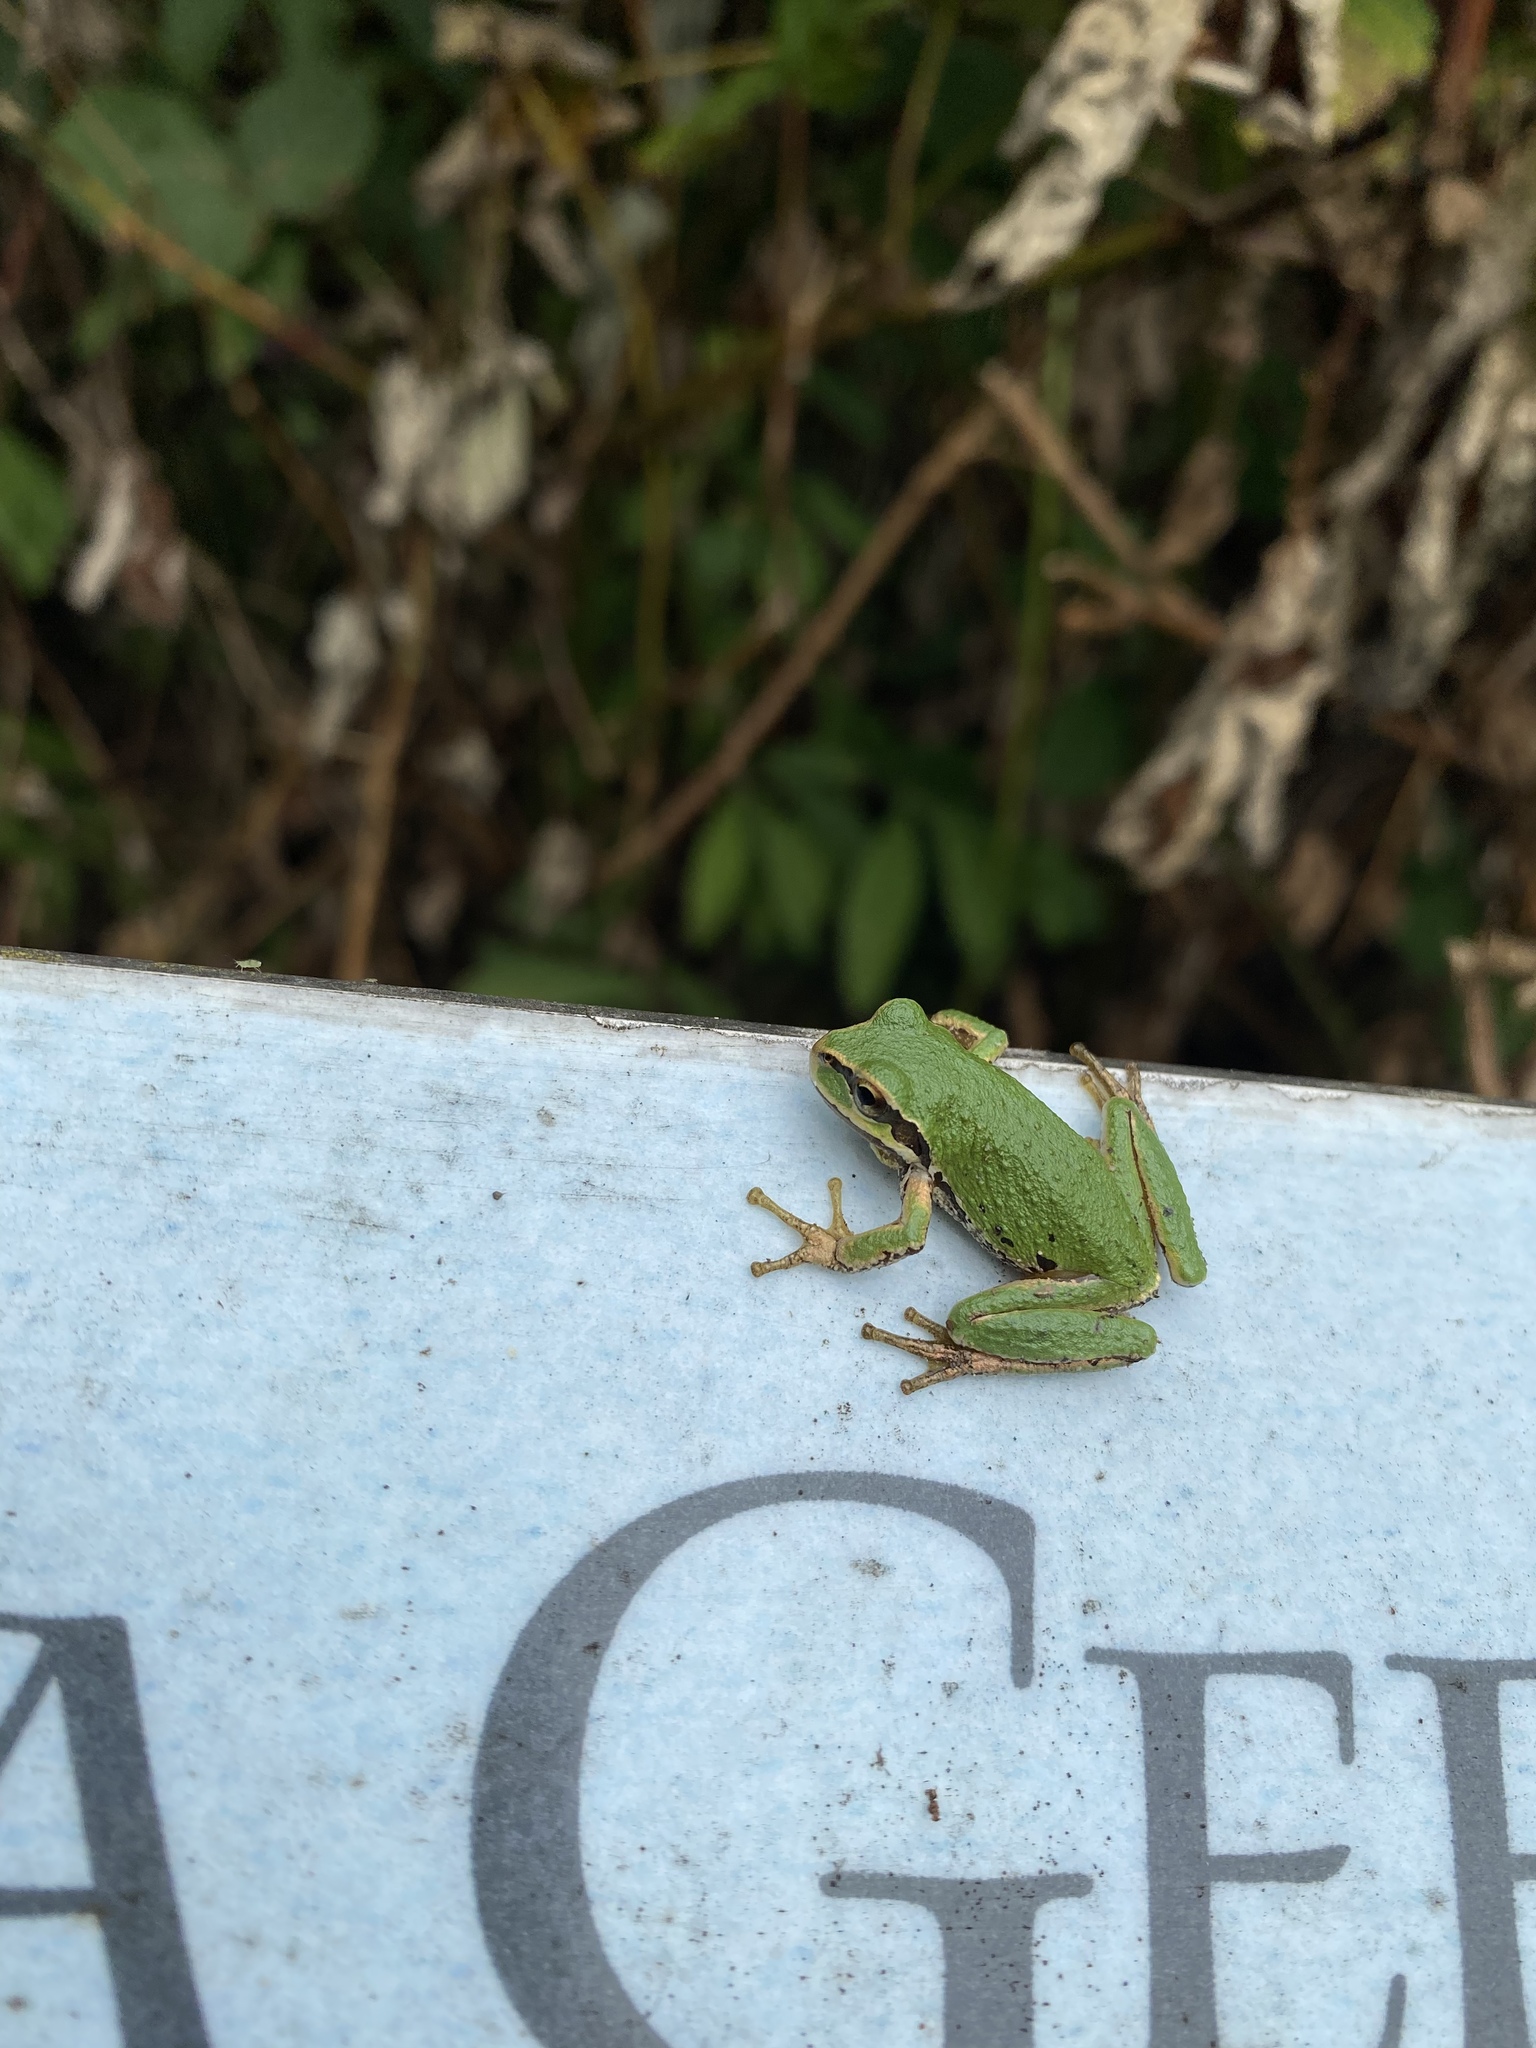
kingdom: Animalia
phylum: Chordata
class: Amphibia
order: Anura
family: Hylidae
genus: Pseudacris
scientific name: Pseudacris regilla
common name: Pacific chorus frog
